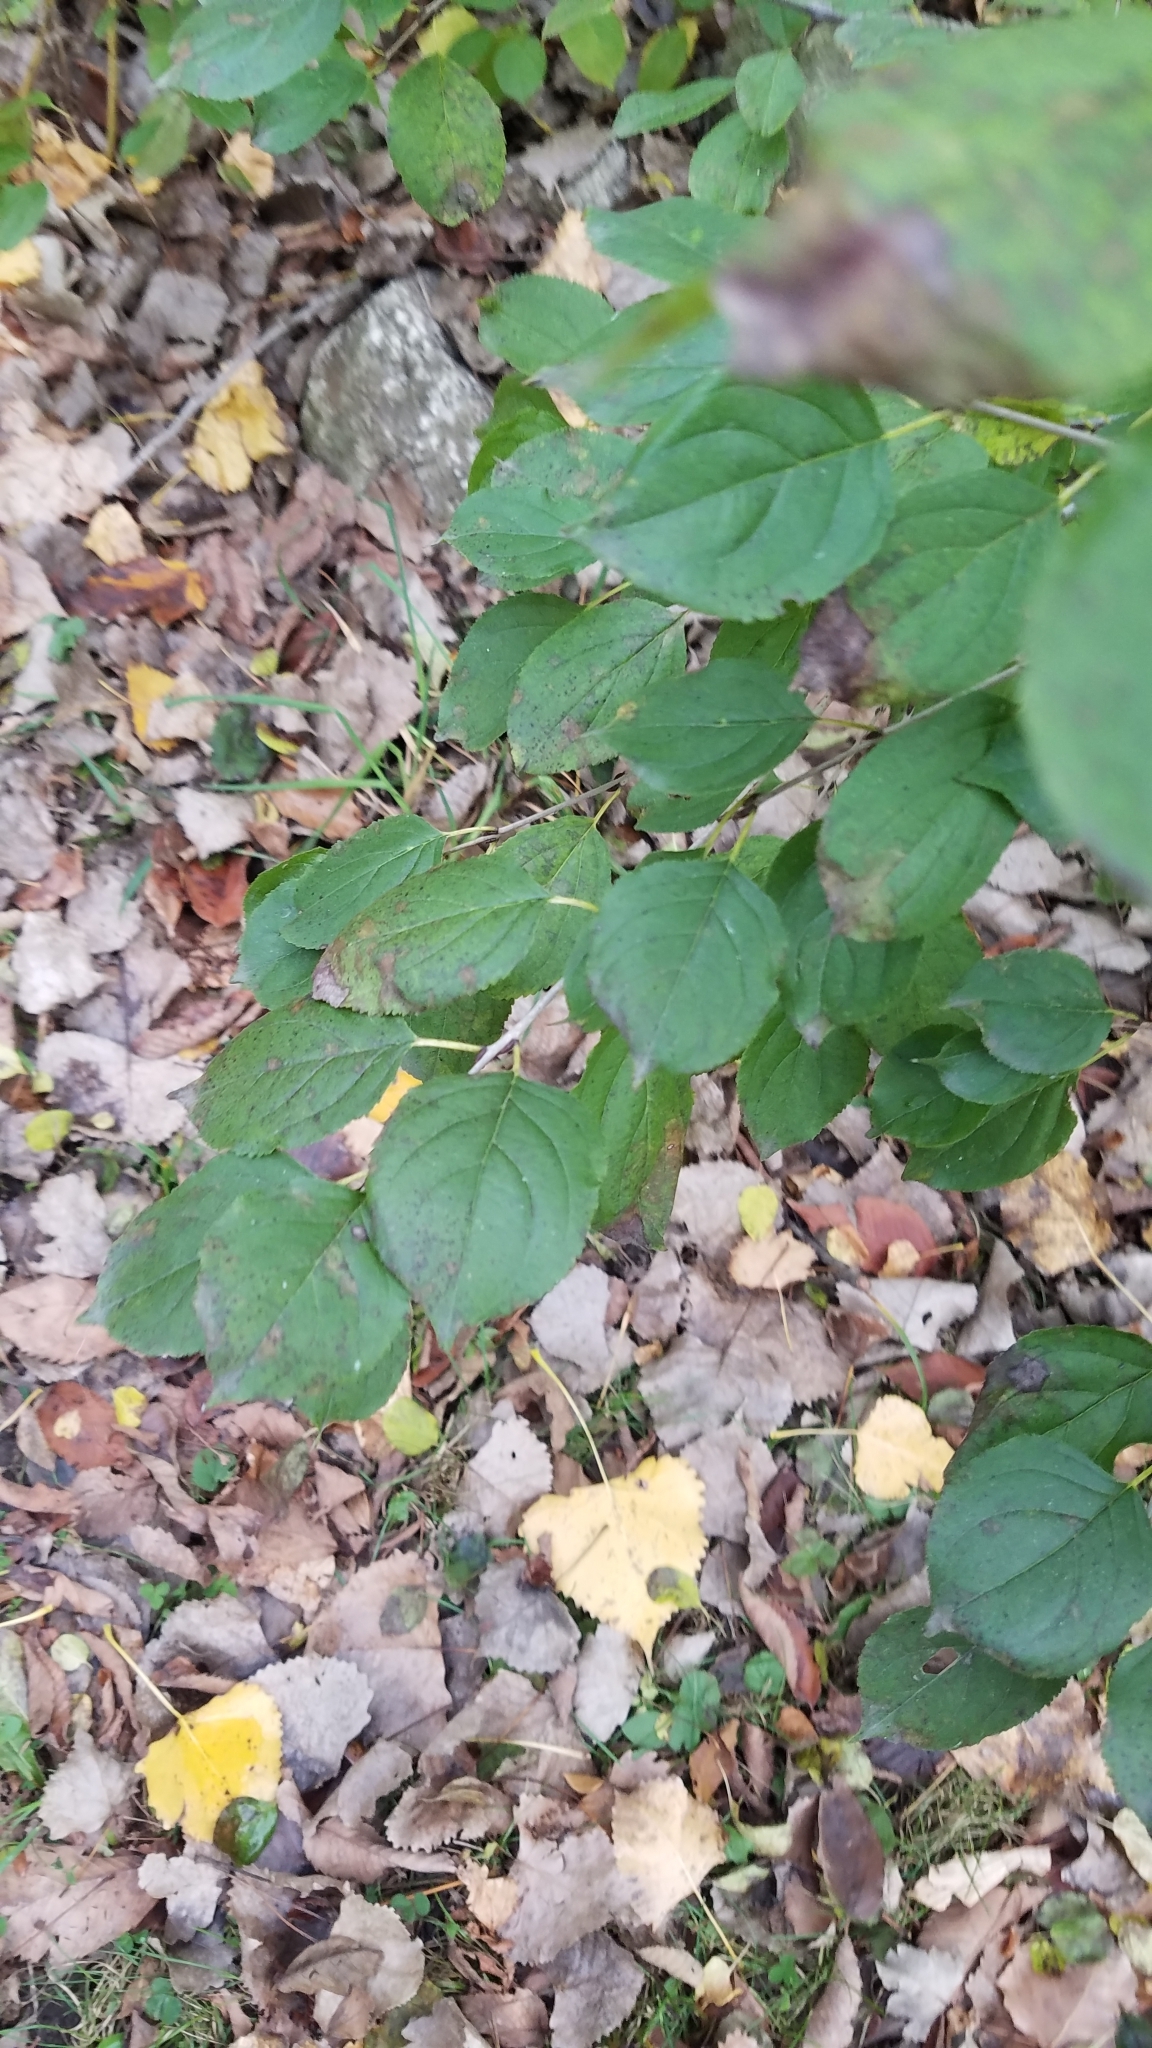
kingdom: Plantae
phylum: Tracheophyta
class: Magnoliopsida
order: Rosales
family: Rhamnaceae
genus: Rhamnus
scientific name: Rhamnus cathartica
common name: Common buckthorn
